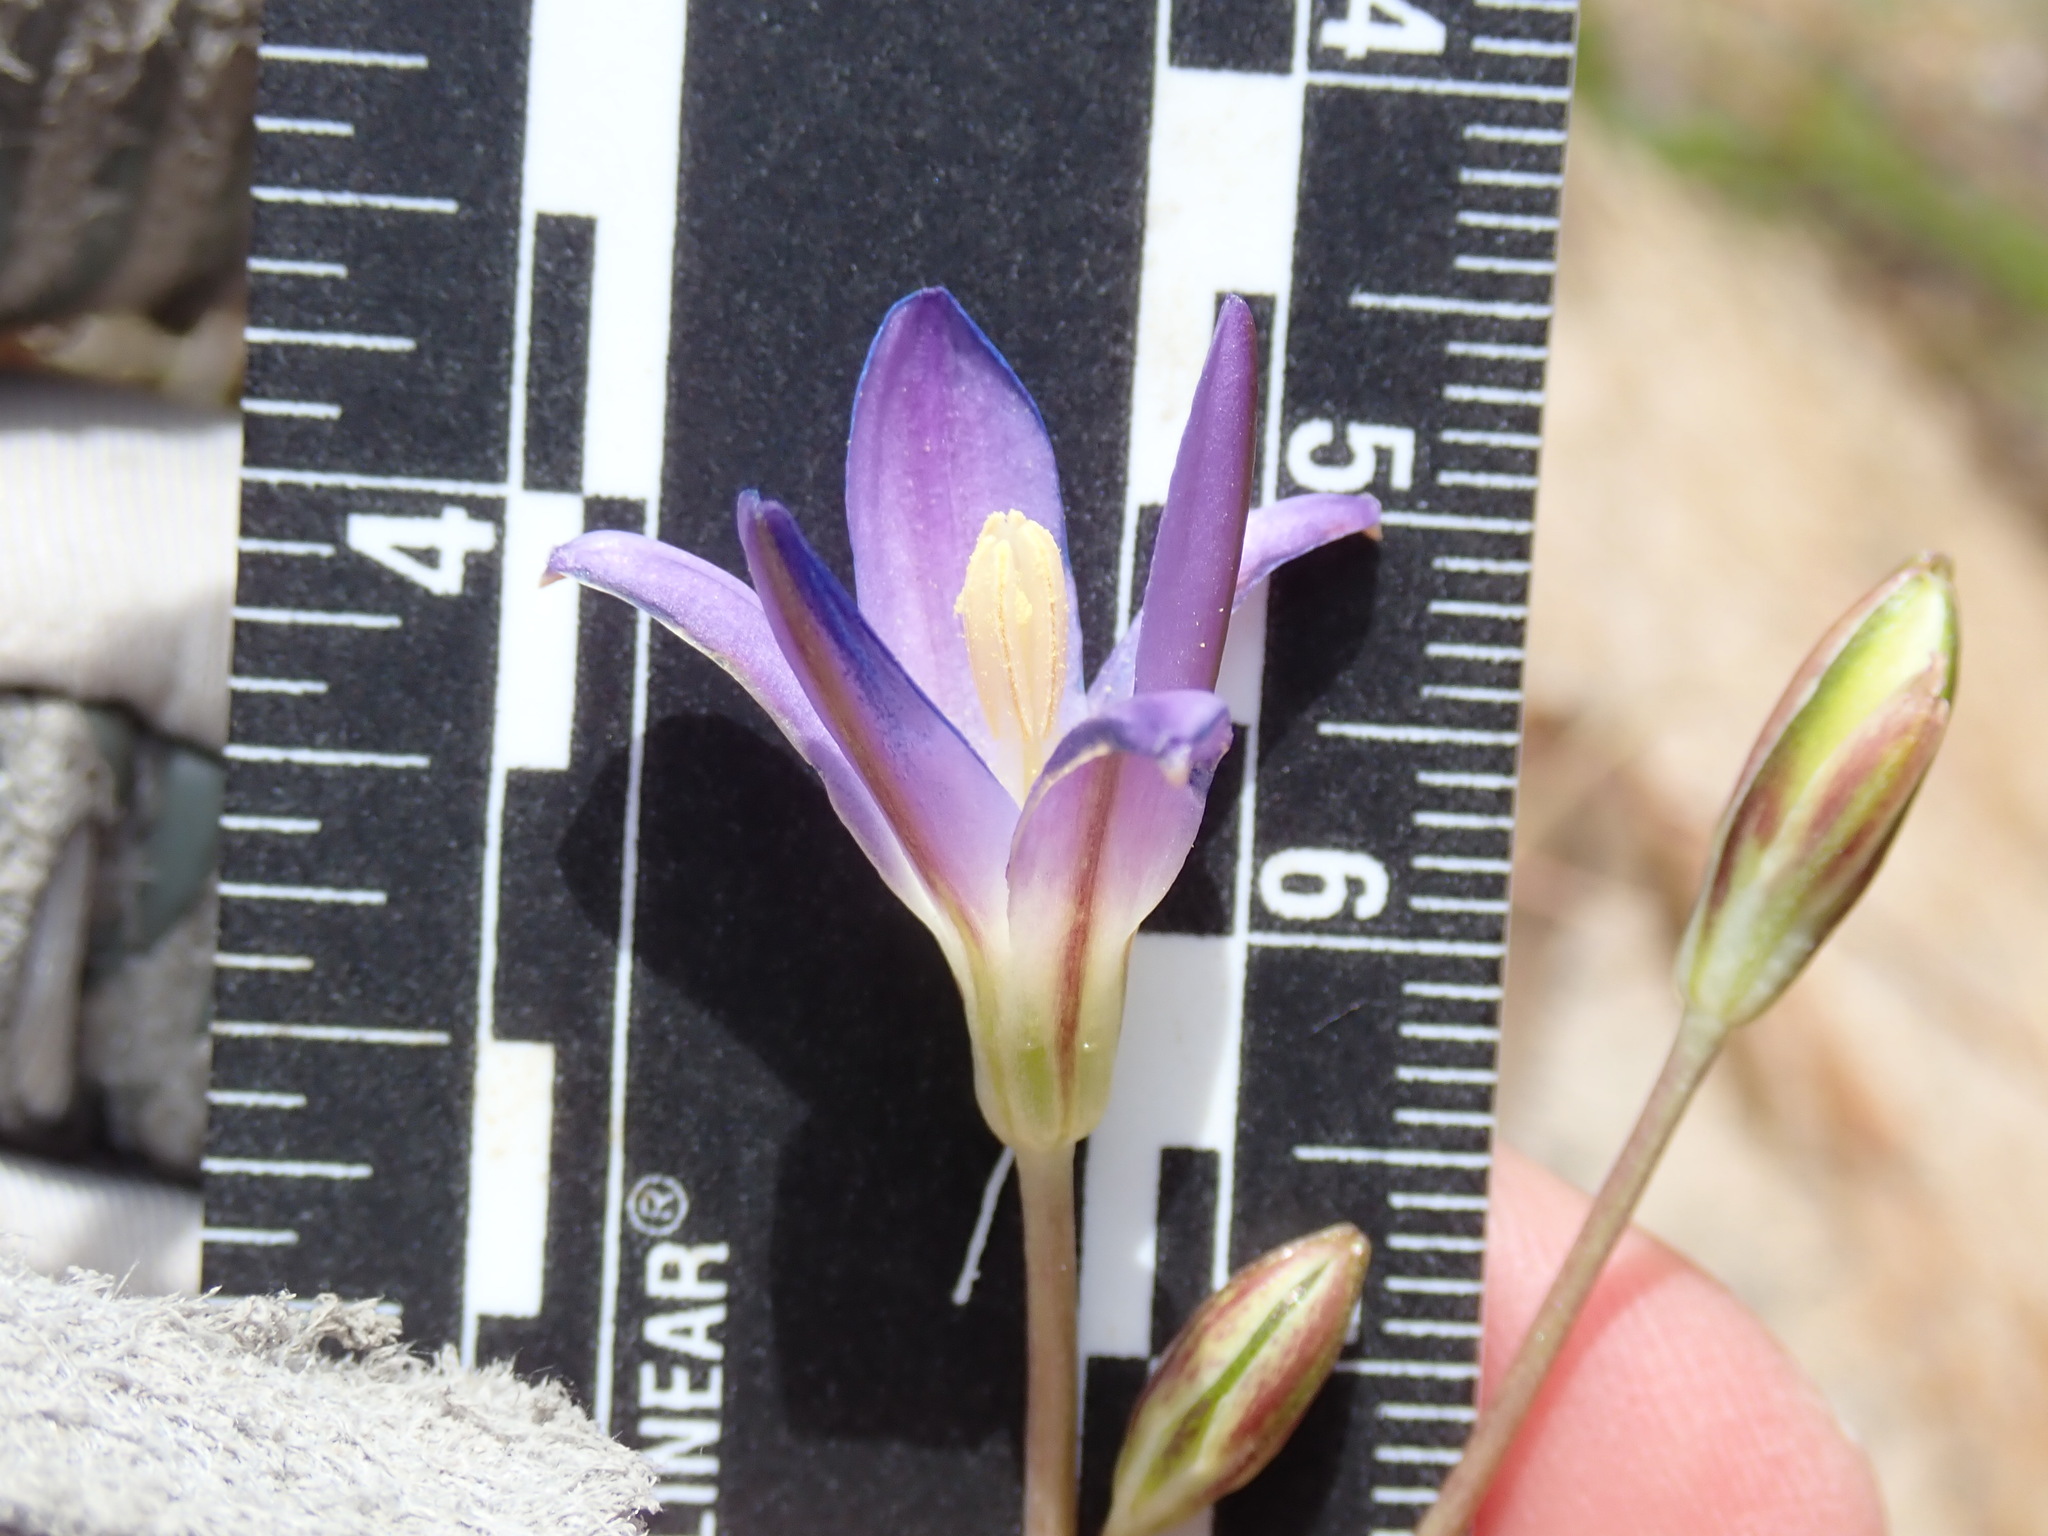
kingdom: Plantae
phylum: Tracheophyta
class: Liliopsida
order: Asparagales
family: Asparagaceae
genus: Brodiaea
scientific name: Brodiaea orcuttii
